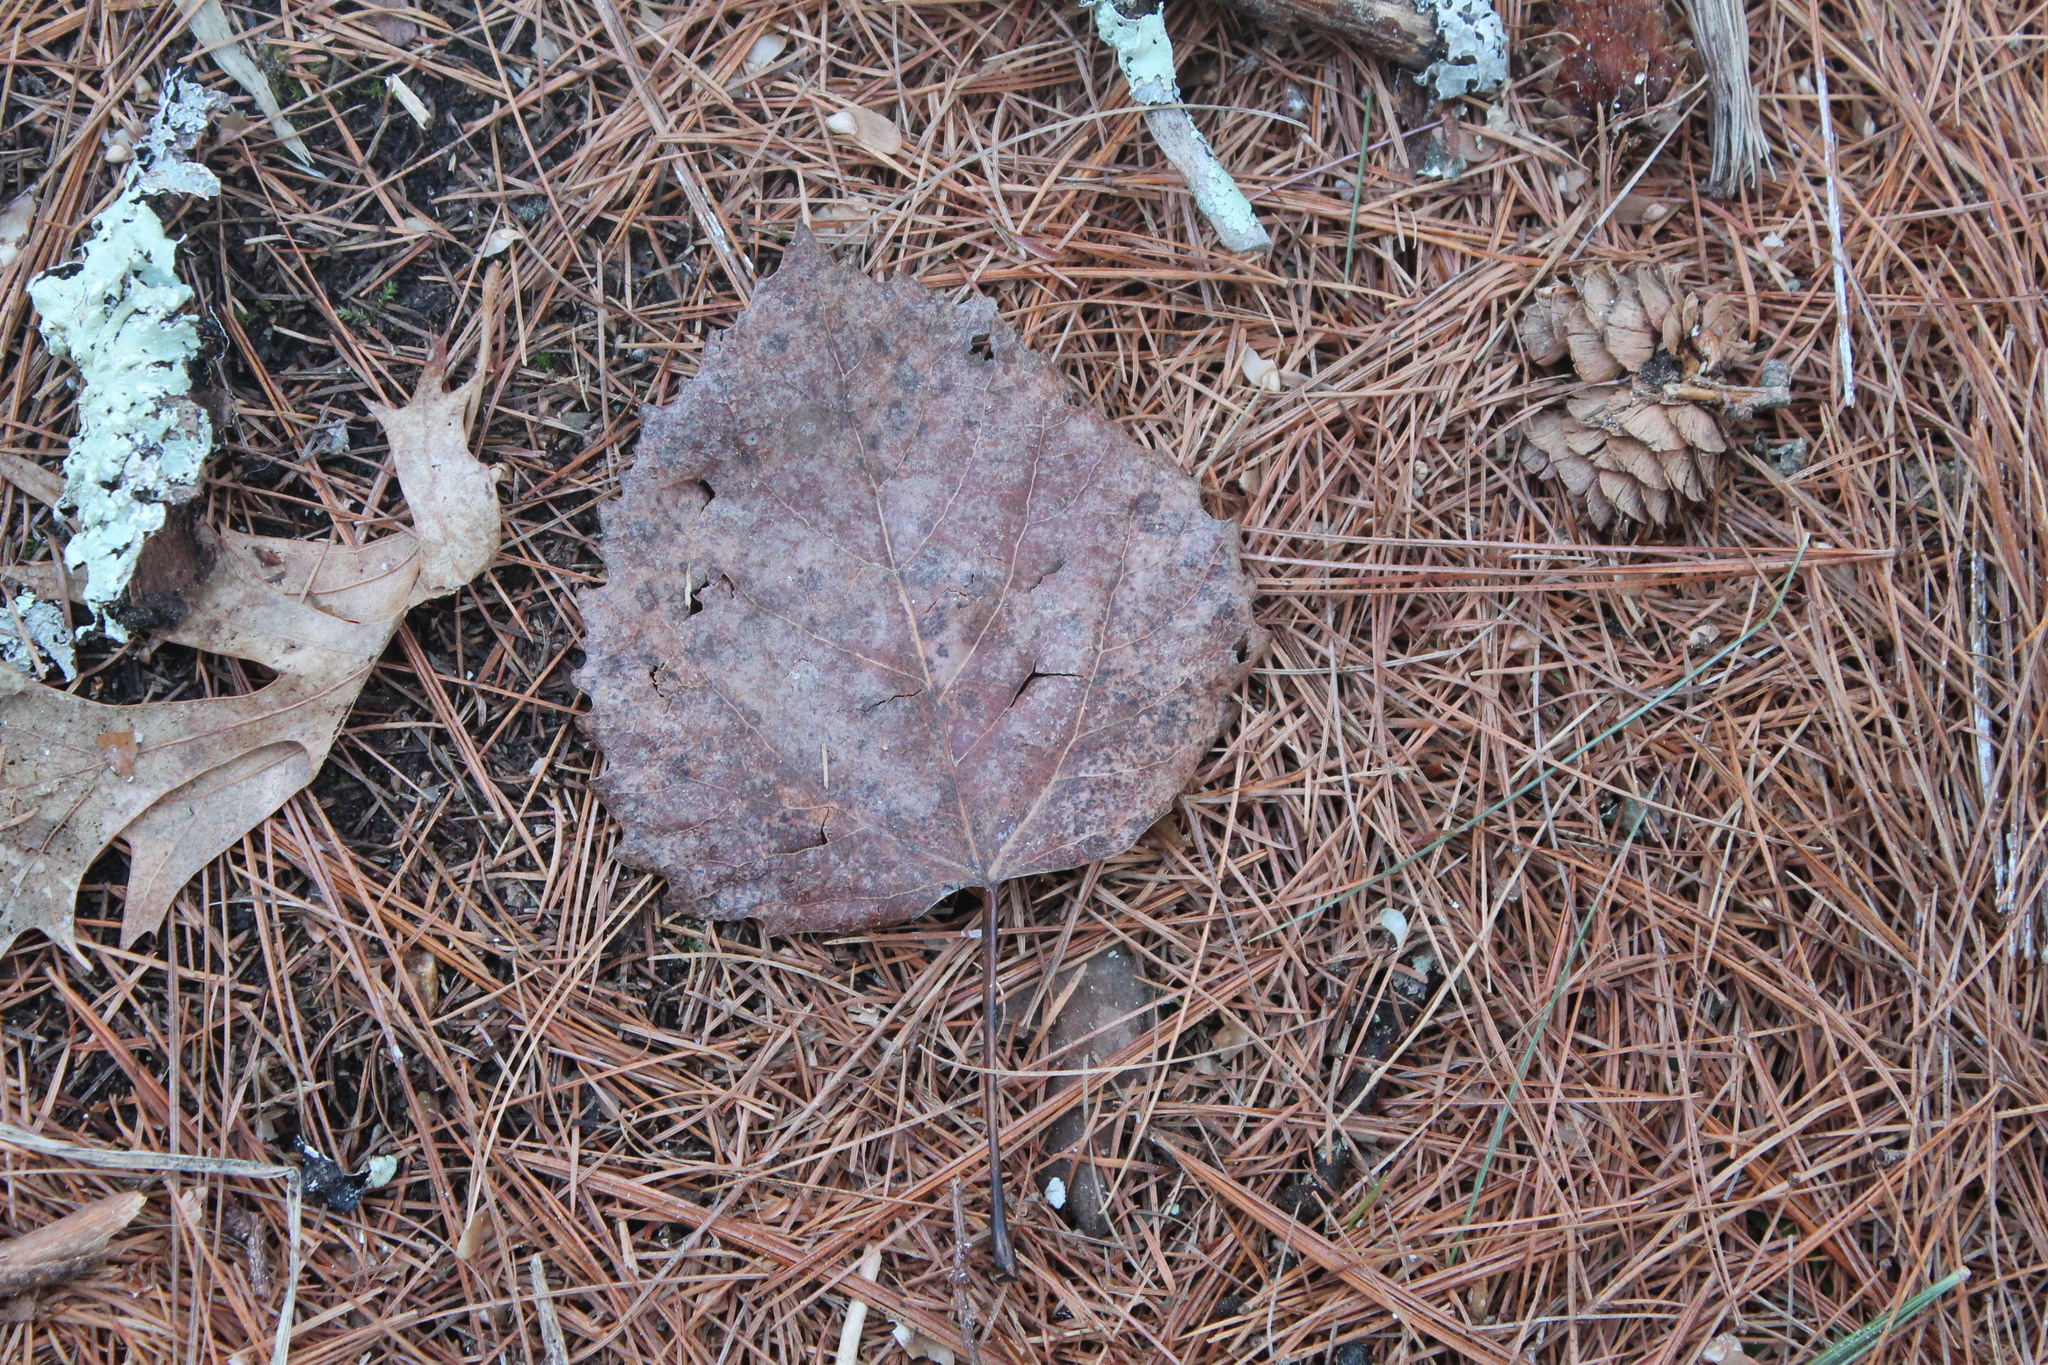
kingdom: Plantae
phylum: Tracheophyta
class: Magnoliopsida
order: Malpighiales
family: Salicaceae
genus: Populus
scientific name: Populus grandidentata
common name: Bigtooth aspen
